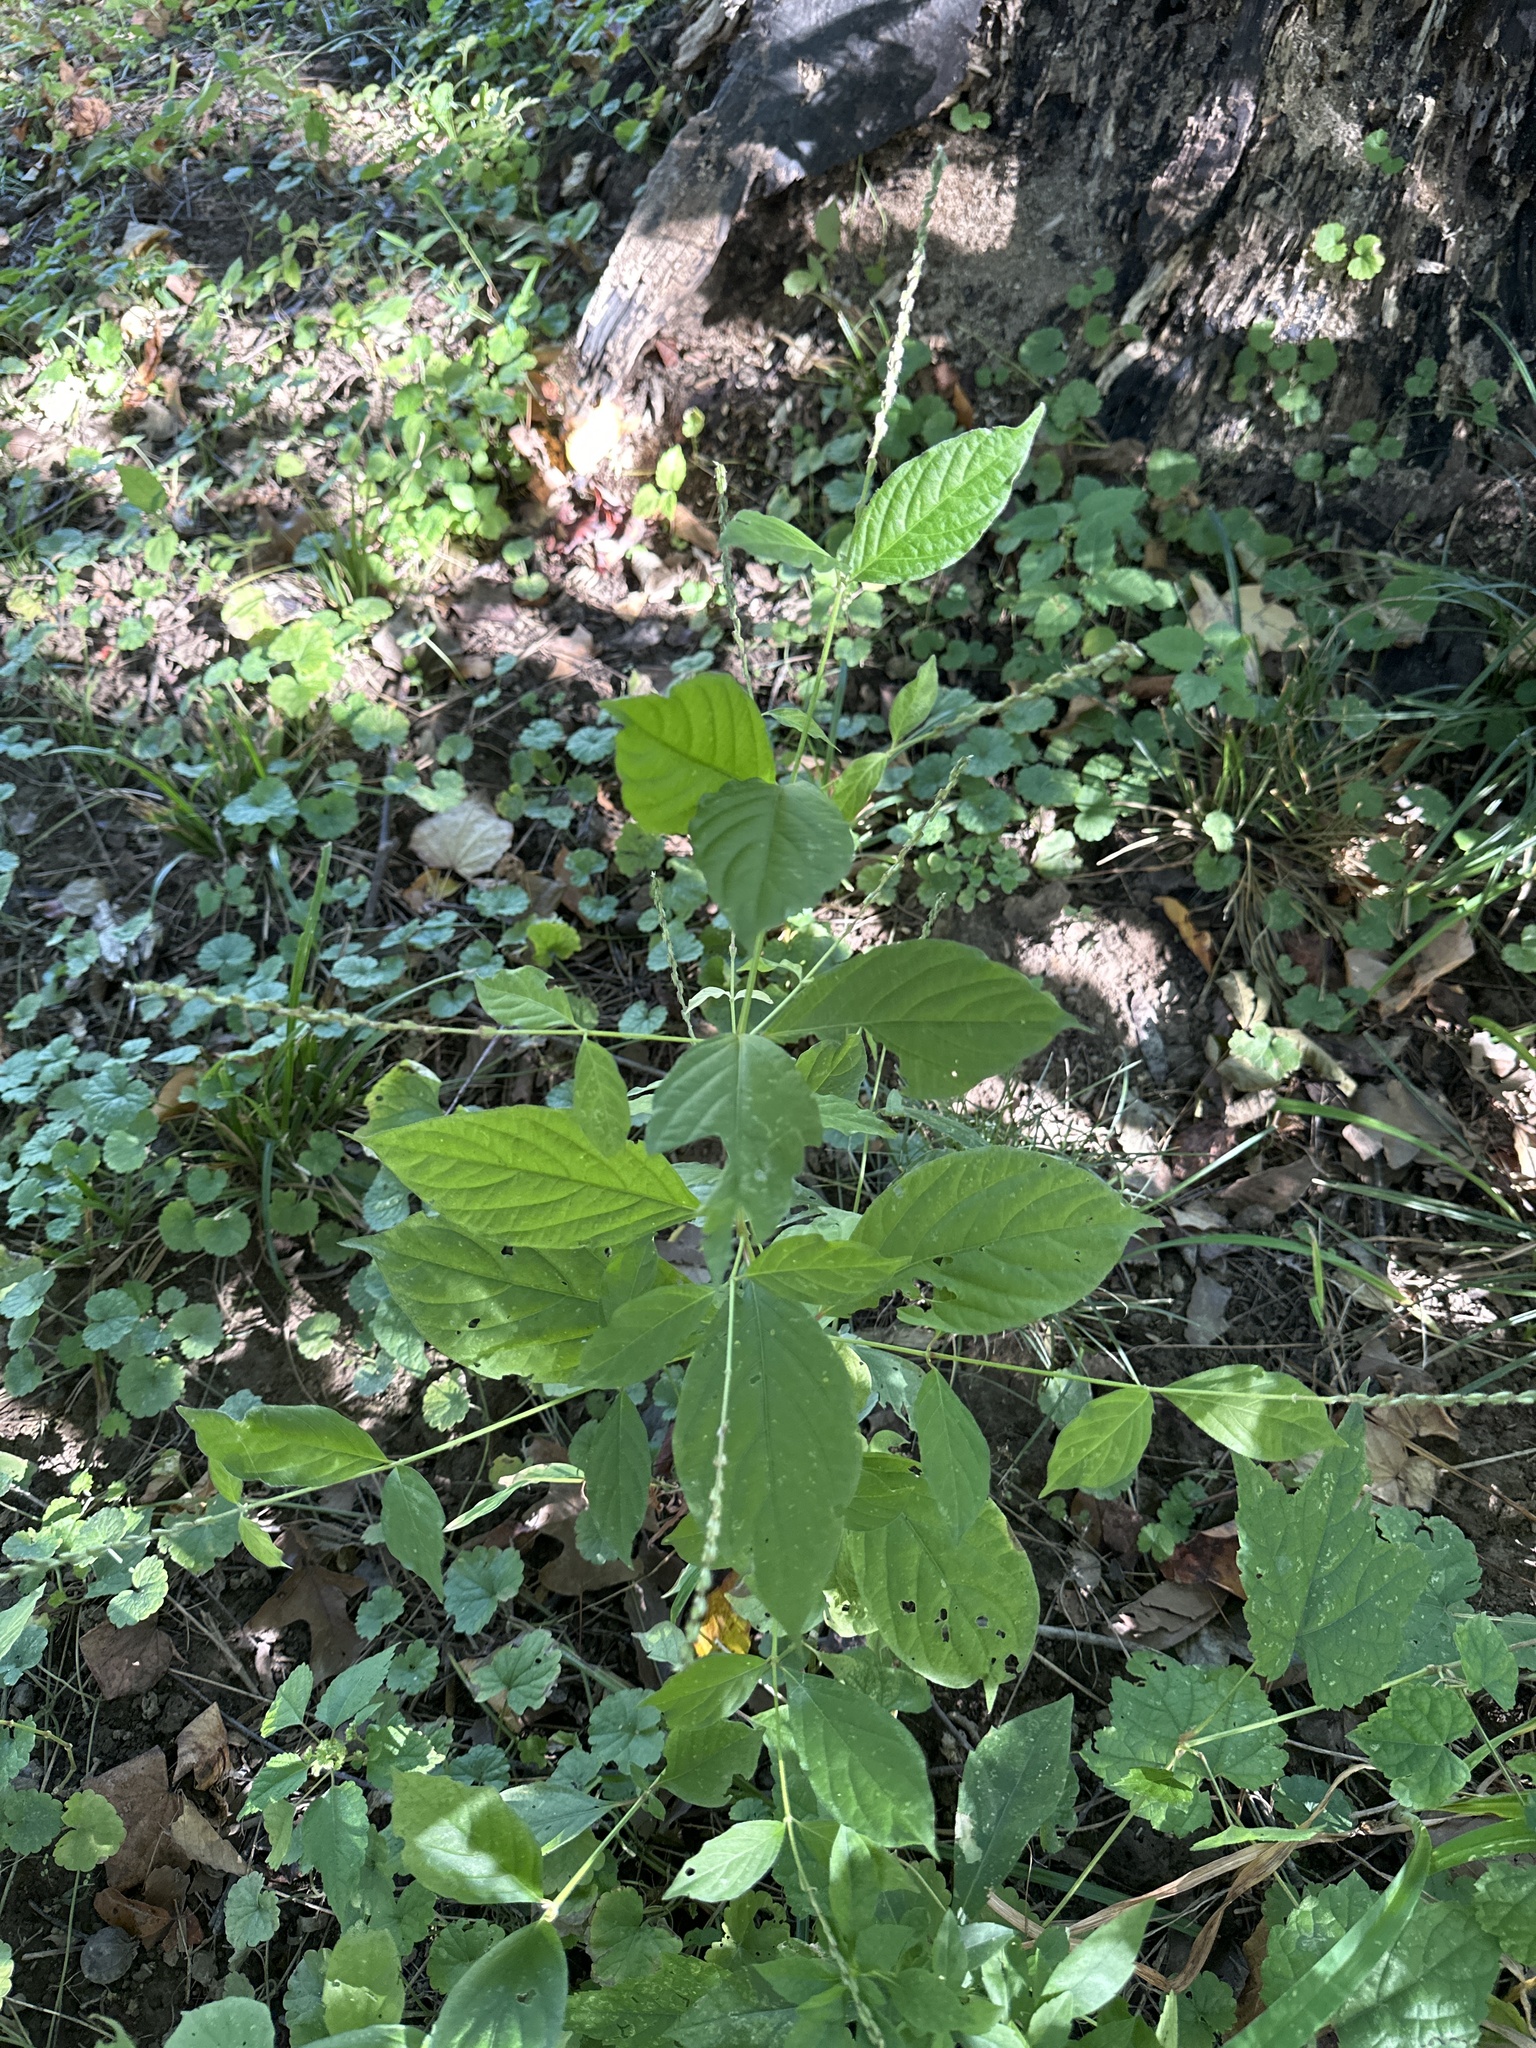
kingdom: Plantae
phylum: Tracheophyta
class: Magnoliopsida
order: Caryophyllales
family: Amaranthaceae
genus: Achyranthes
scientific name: Achyranthes bidentata
